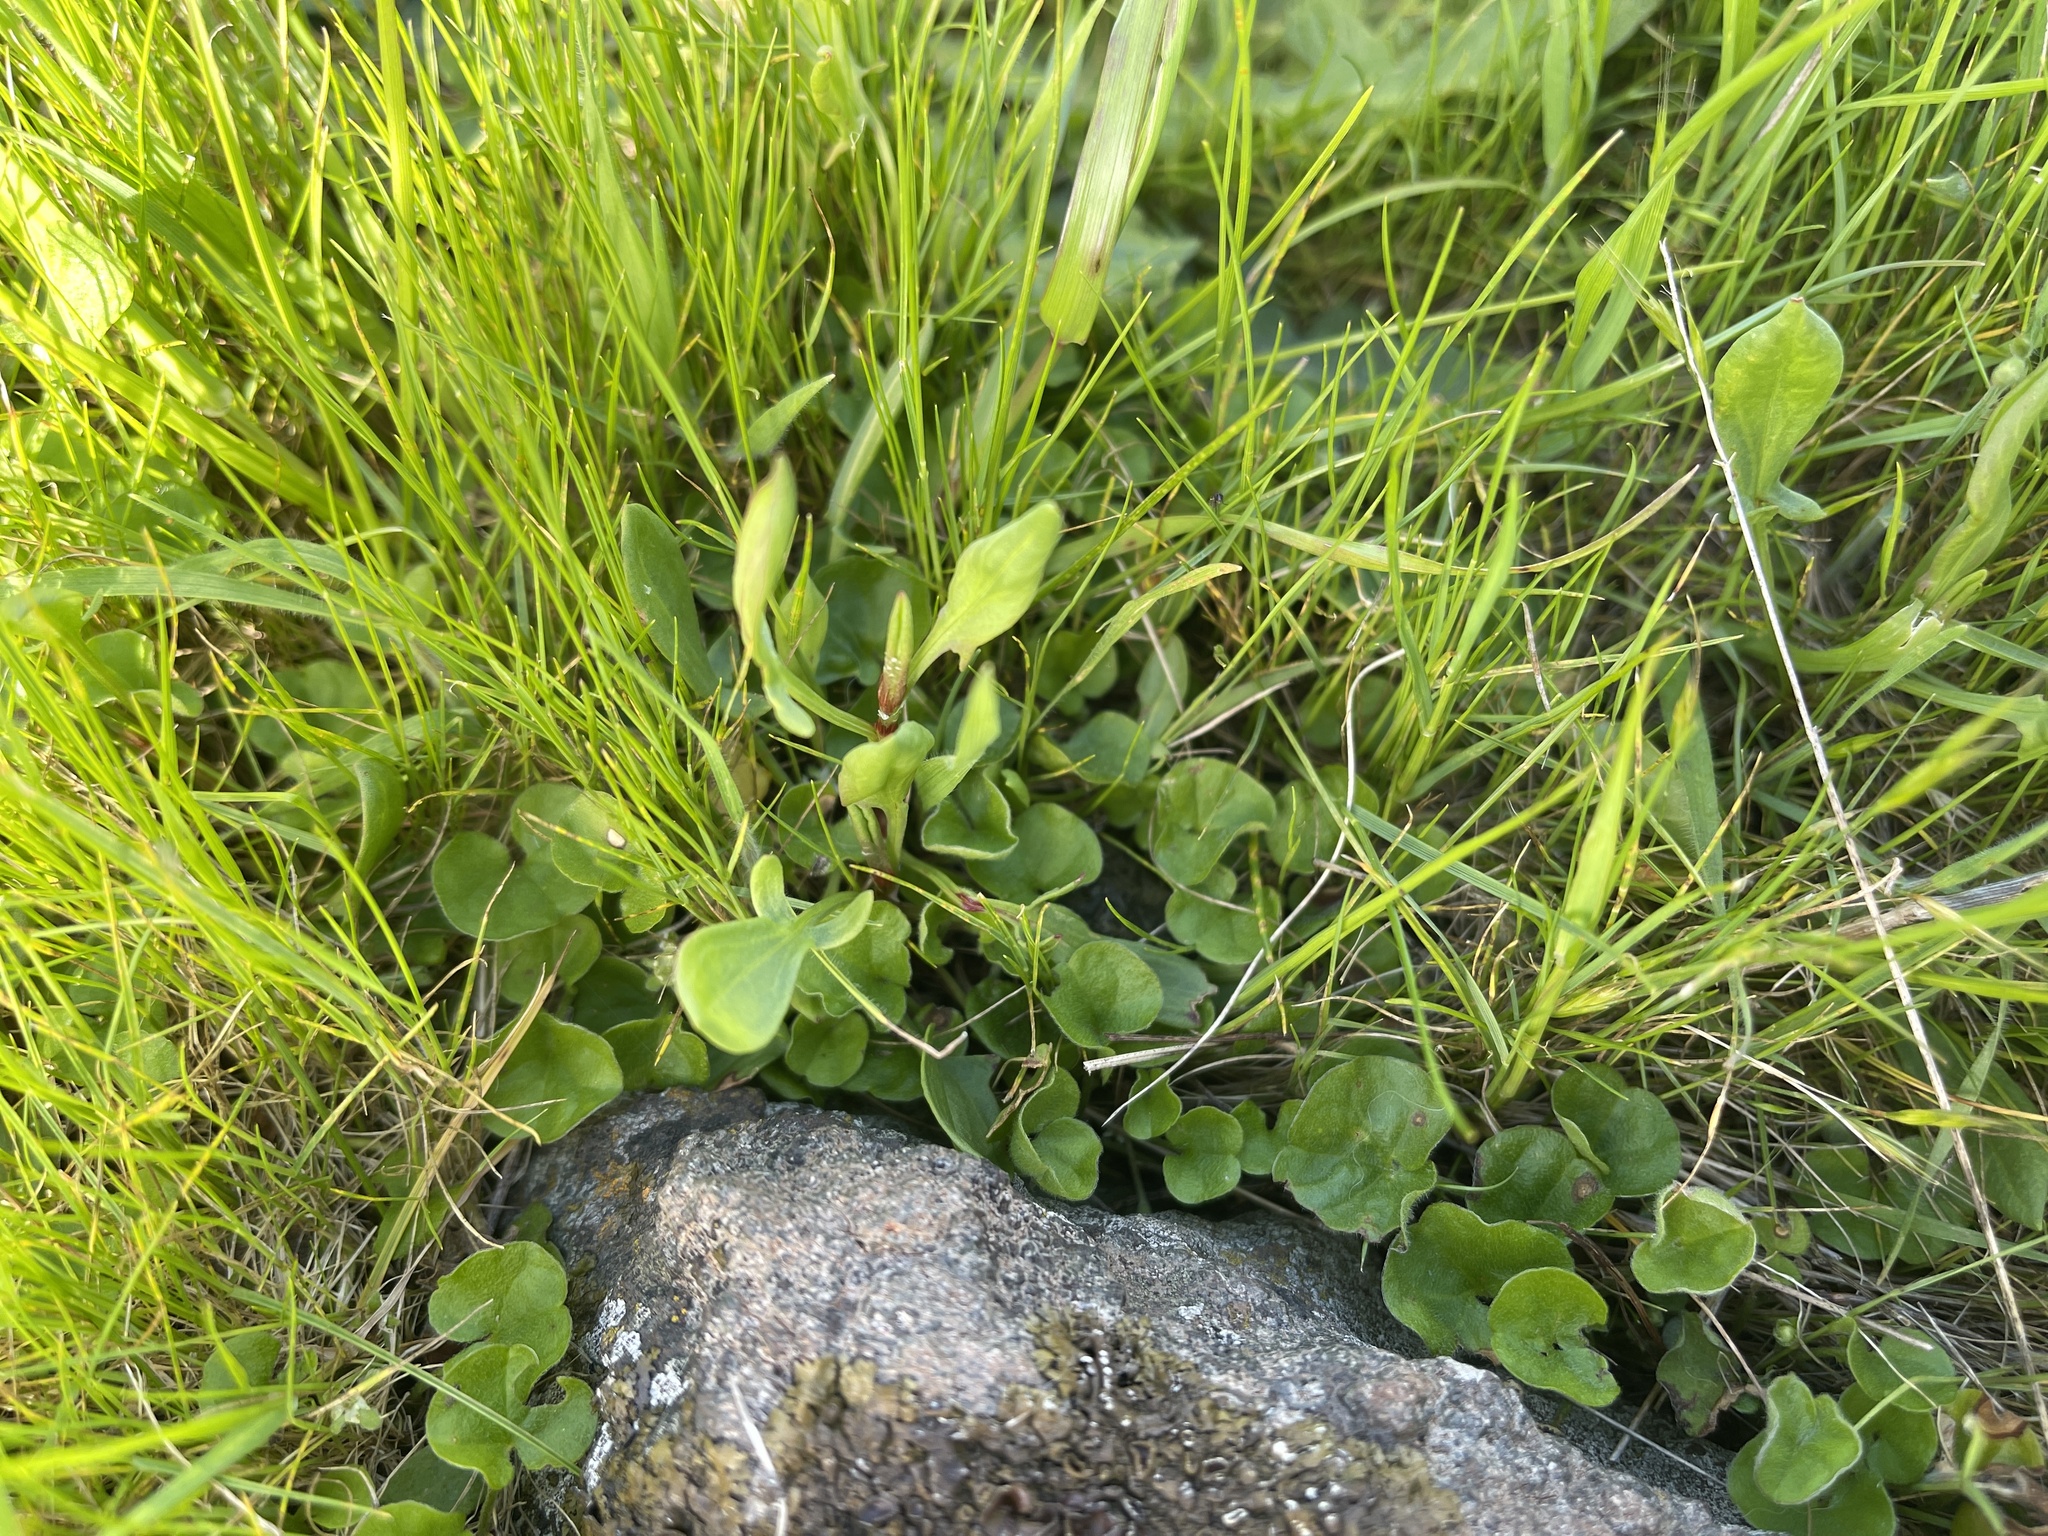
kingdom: Plantae
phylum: Tracheophyta
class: Magnoliopsida
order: Solanales
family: Convolvulaceae
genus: Dichondra
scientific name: Dichondra repens
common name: Kidneyweed
